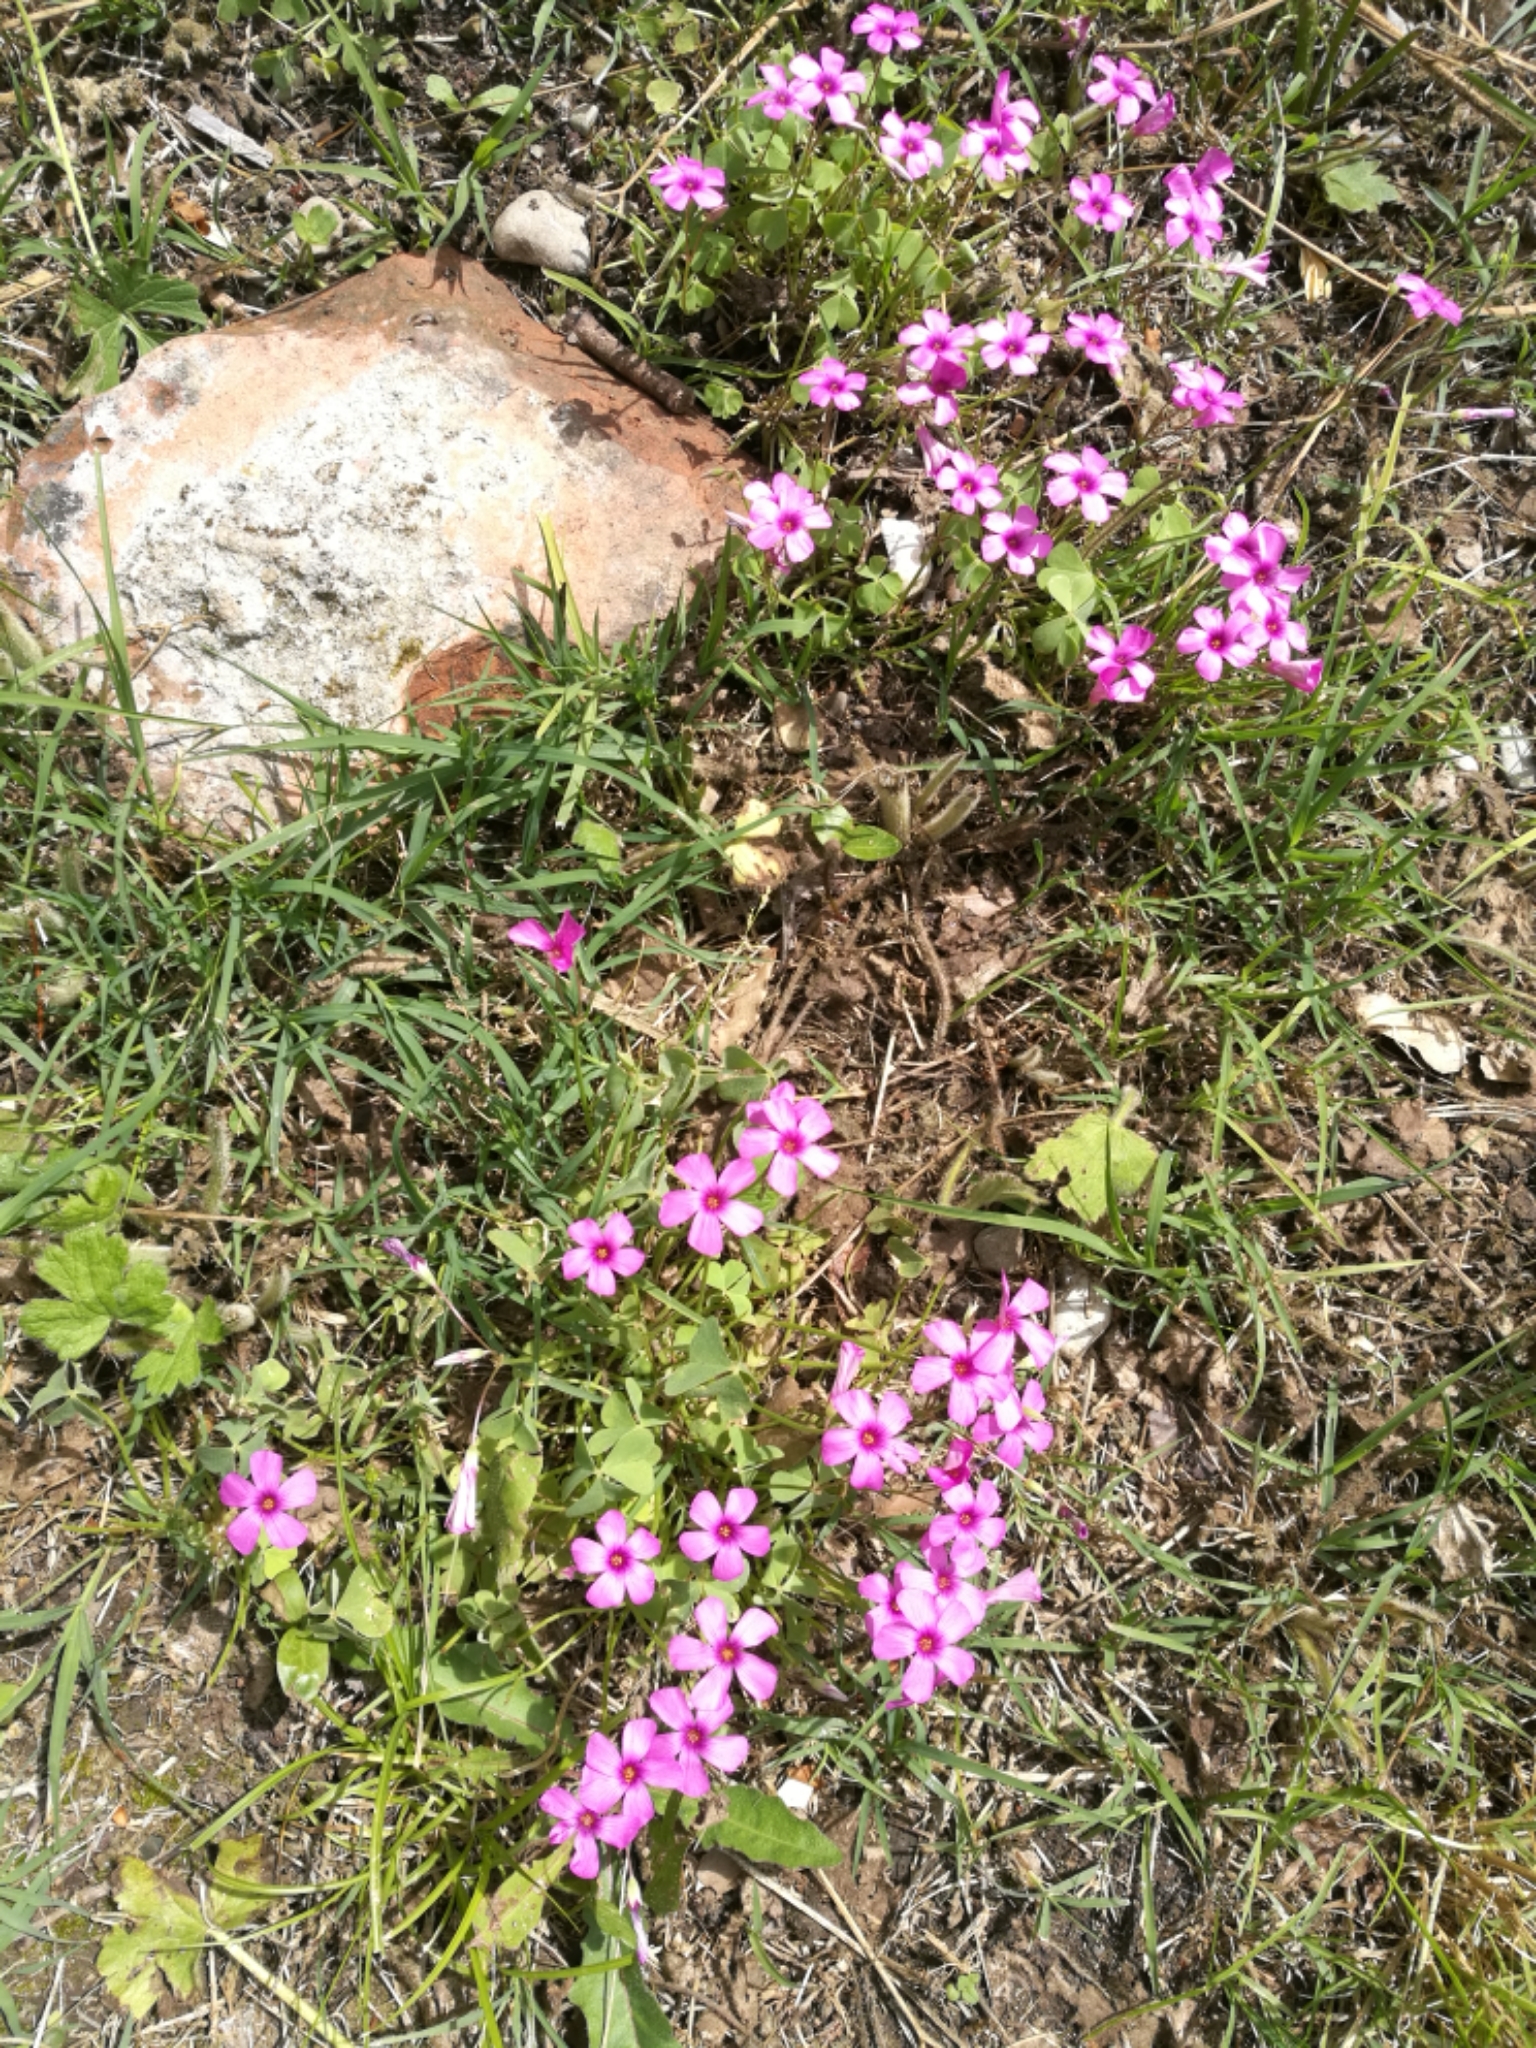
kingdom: Plantae
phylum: Tracheophyta
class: Magnoliopsida
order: Oxalidales
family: Oxalidaceae
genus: Oxalis
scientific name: Oxalis articulata
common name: Pink-sorrel
